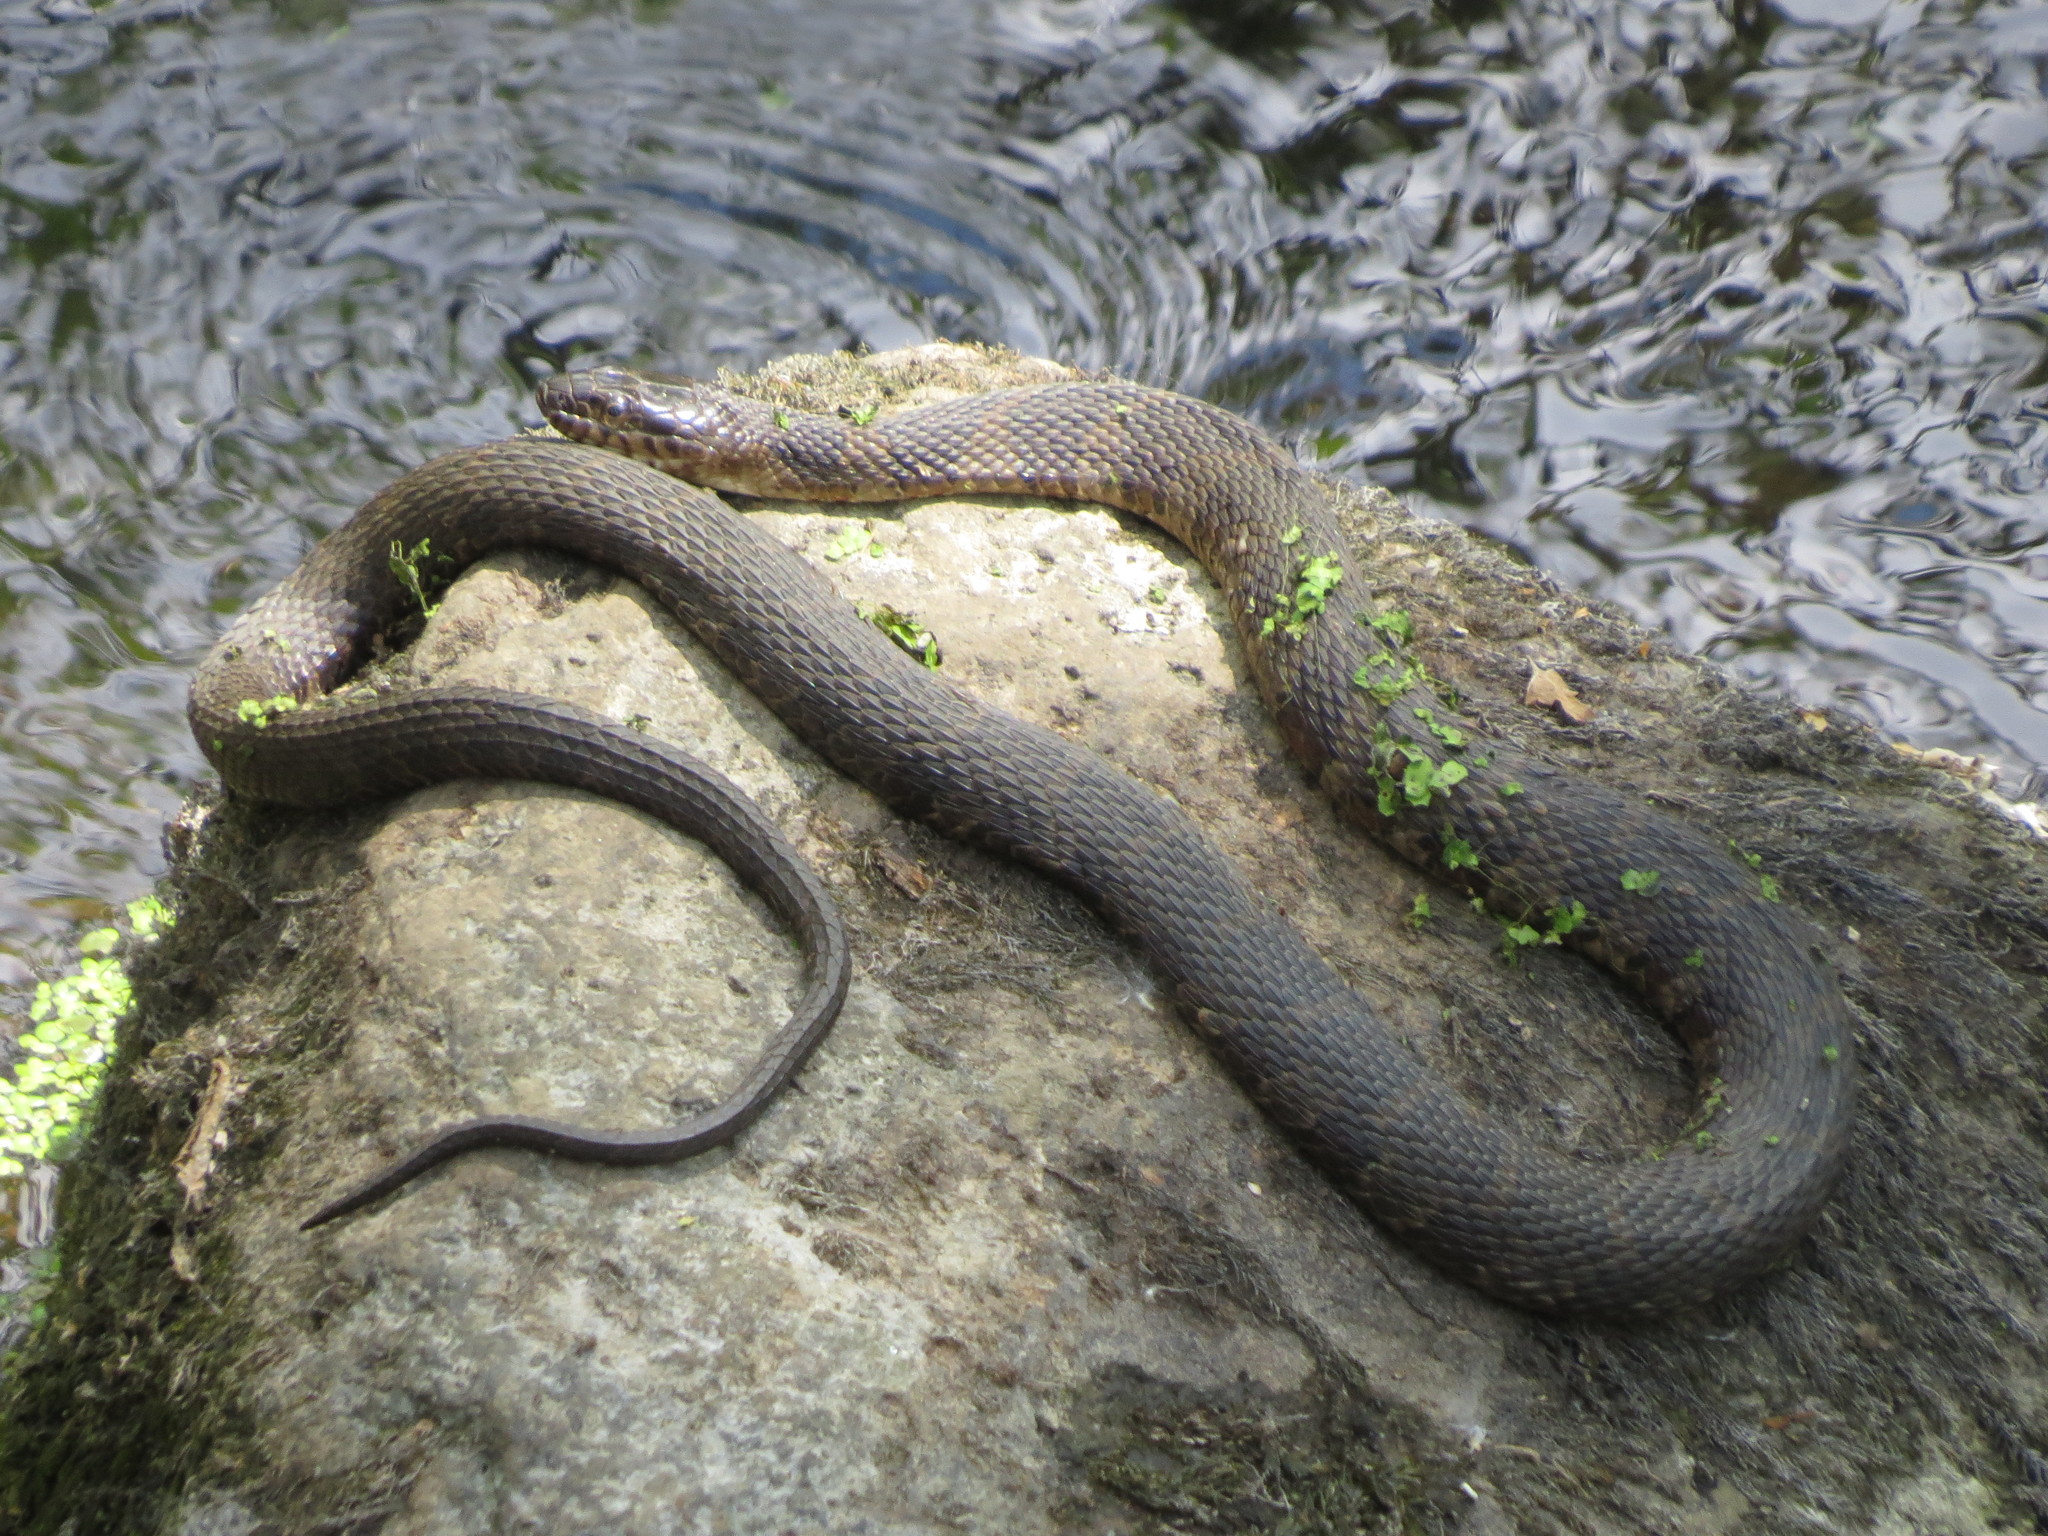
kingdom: Animalia
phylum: Chordata
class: Squamata
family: Colubridae
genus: Nerodia
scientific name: Nerodia sipedon
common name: Northern water snake
